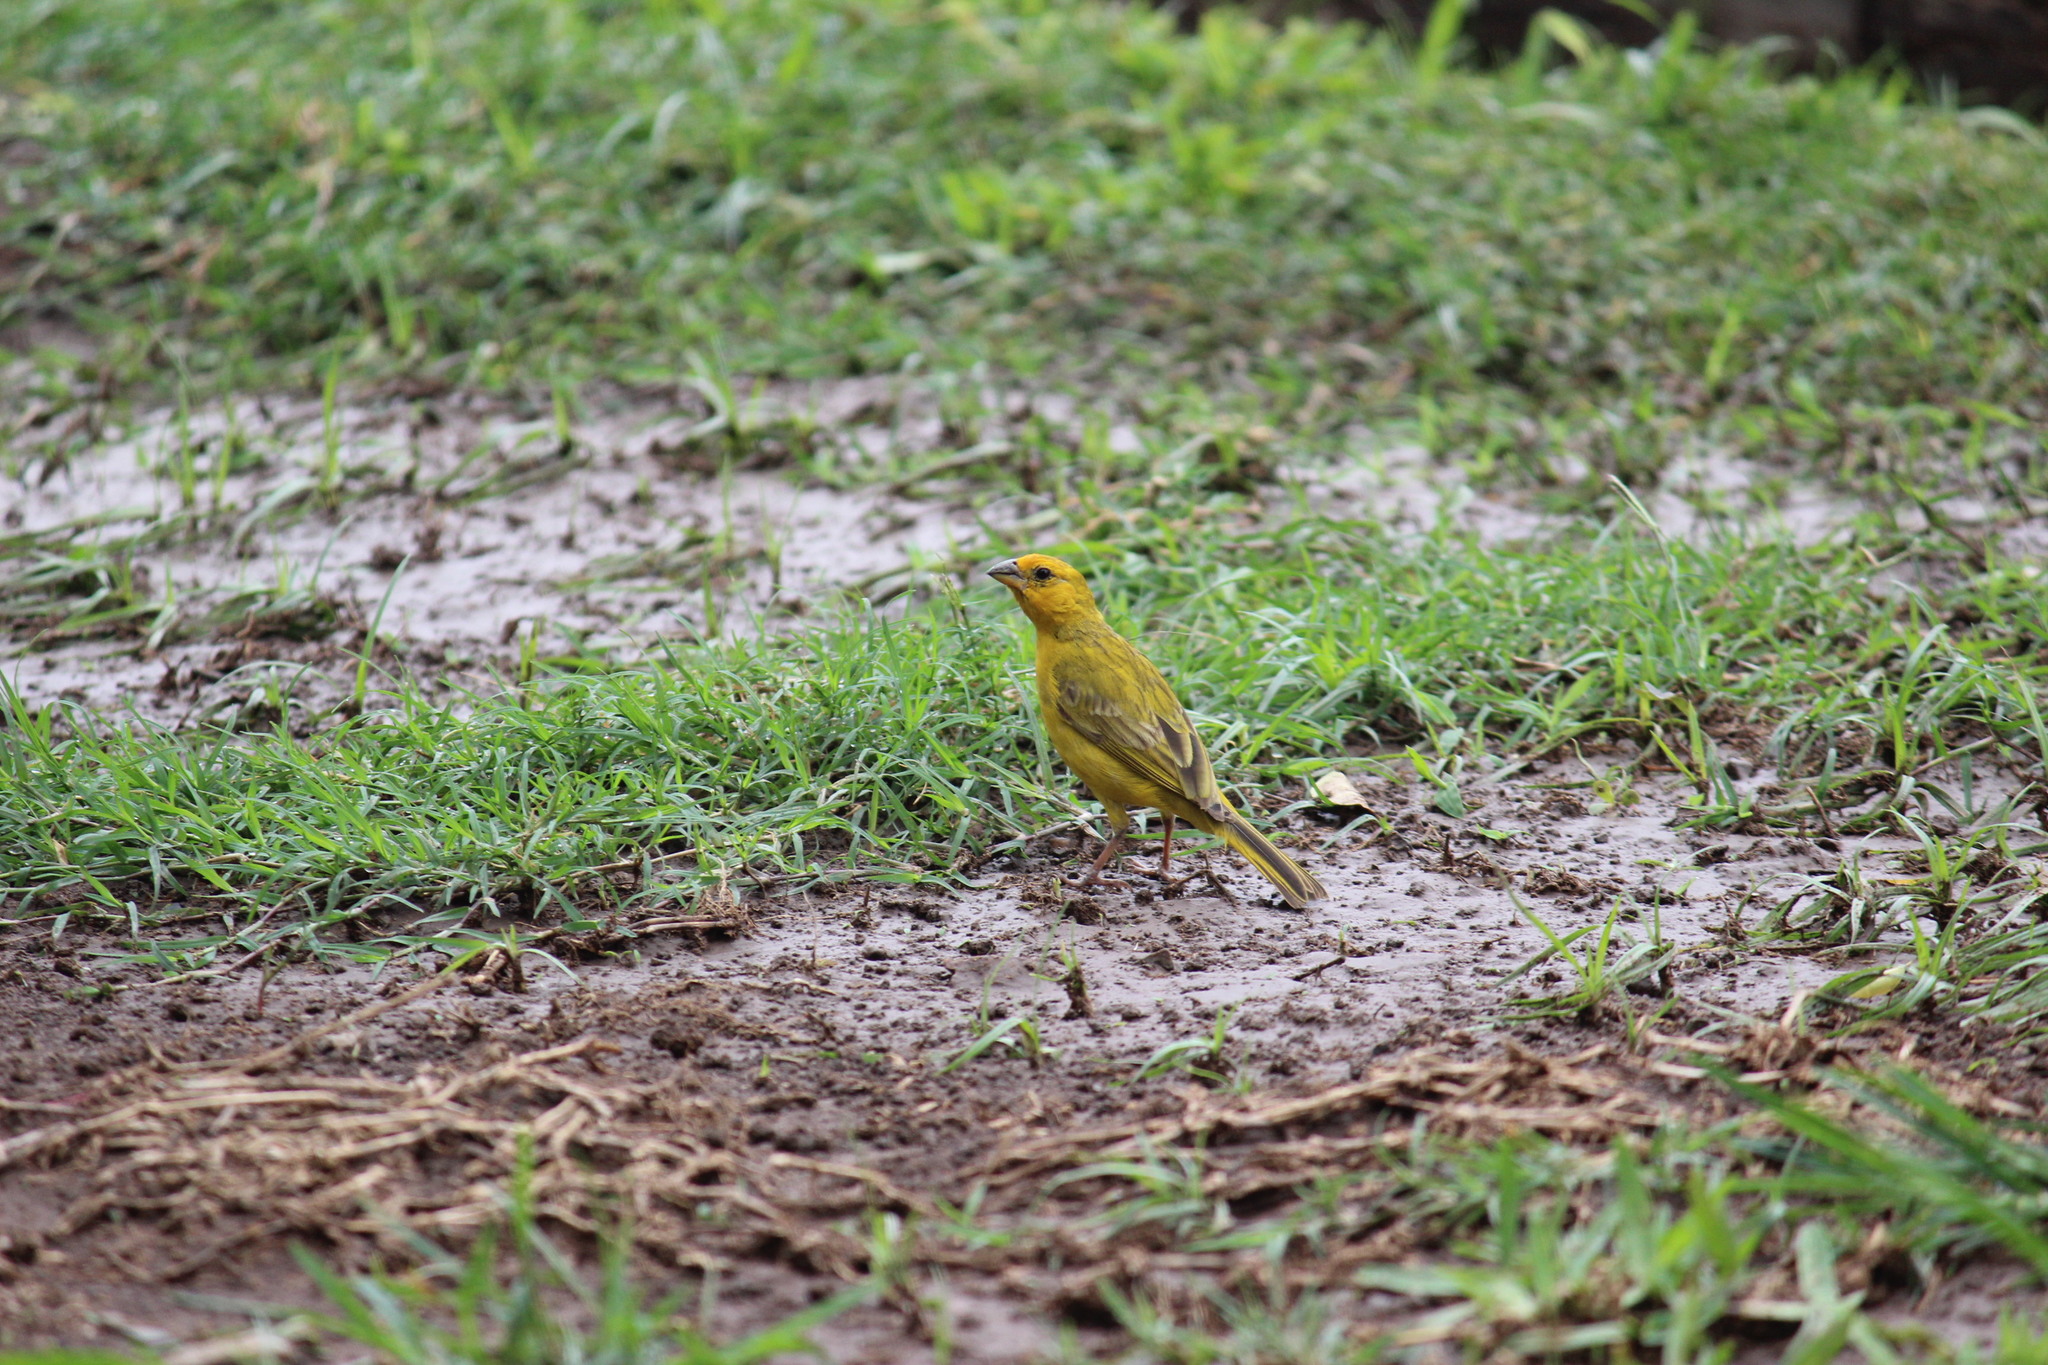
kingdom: Animalia
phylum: Chordata
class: Aves
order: Passeriformes
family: Thraupidae
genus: Sicalis
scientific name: Sicalis flaveola
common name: Saffron finch
